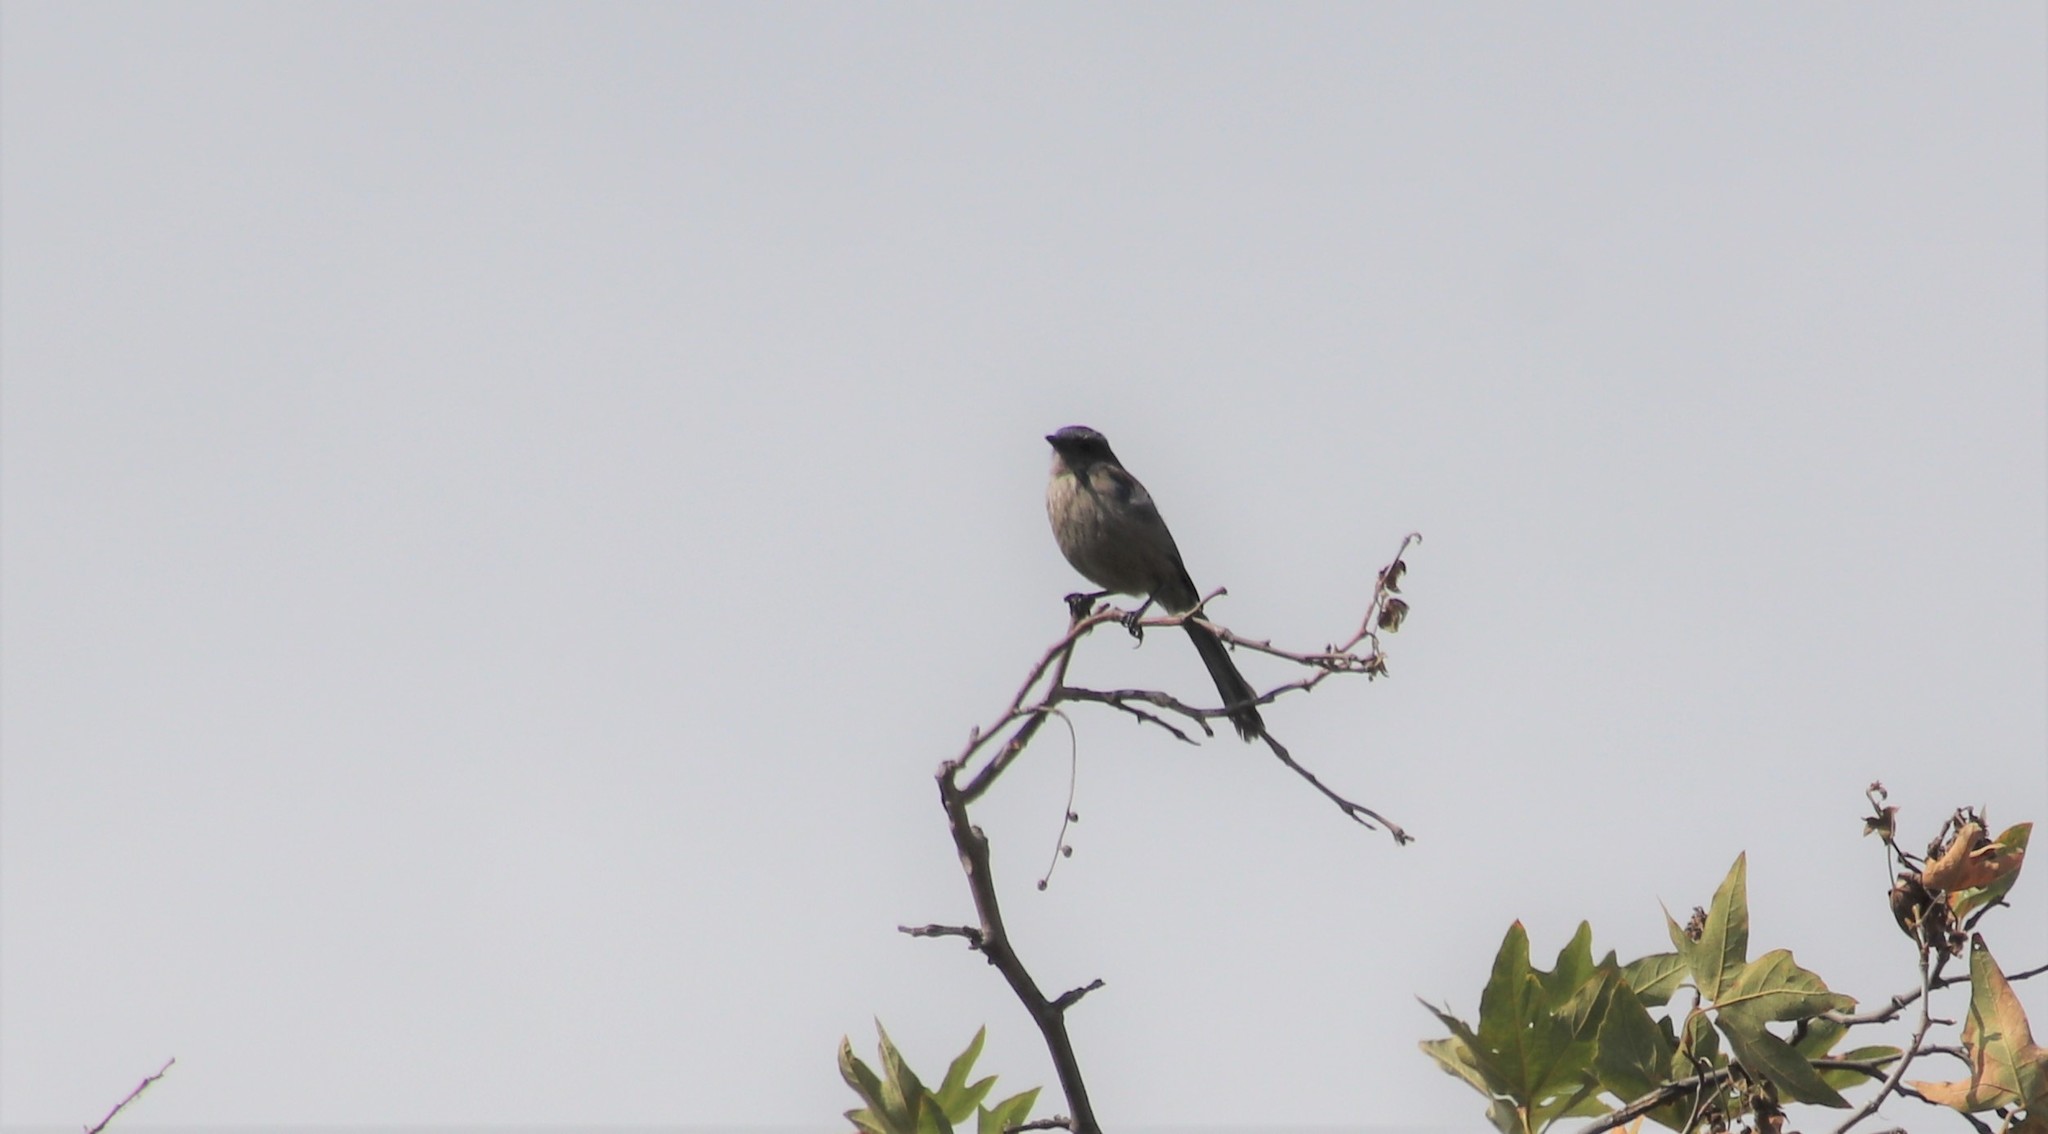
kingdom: Animalia
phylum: Chordata
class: Aves
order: Passeriformes
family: Corvidae
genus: Aphelocoma
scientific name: Aphelocoma californica
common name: California scrub-jay
